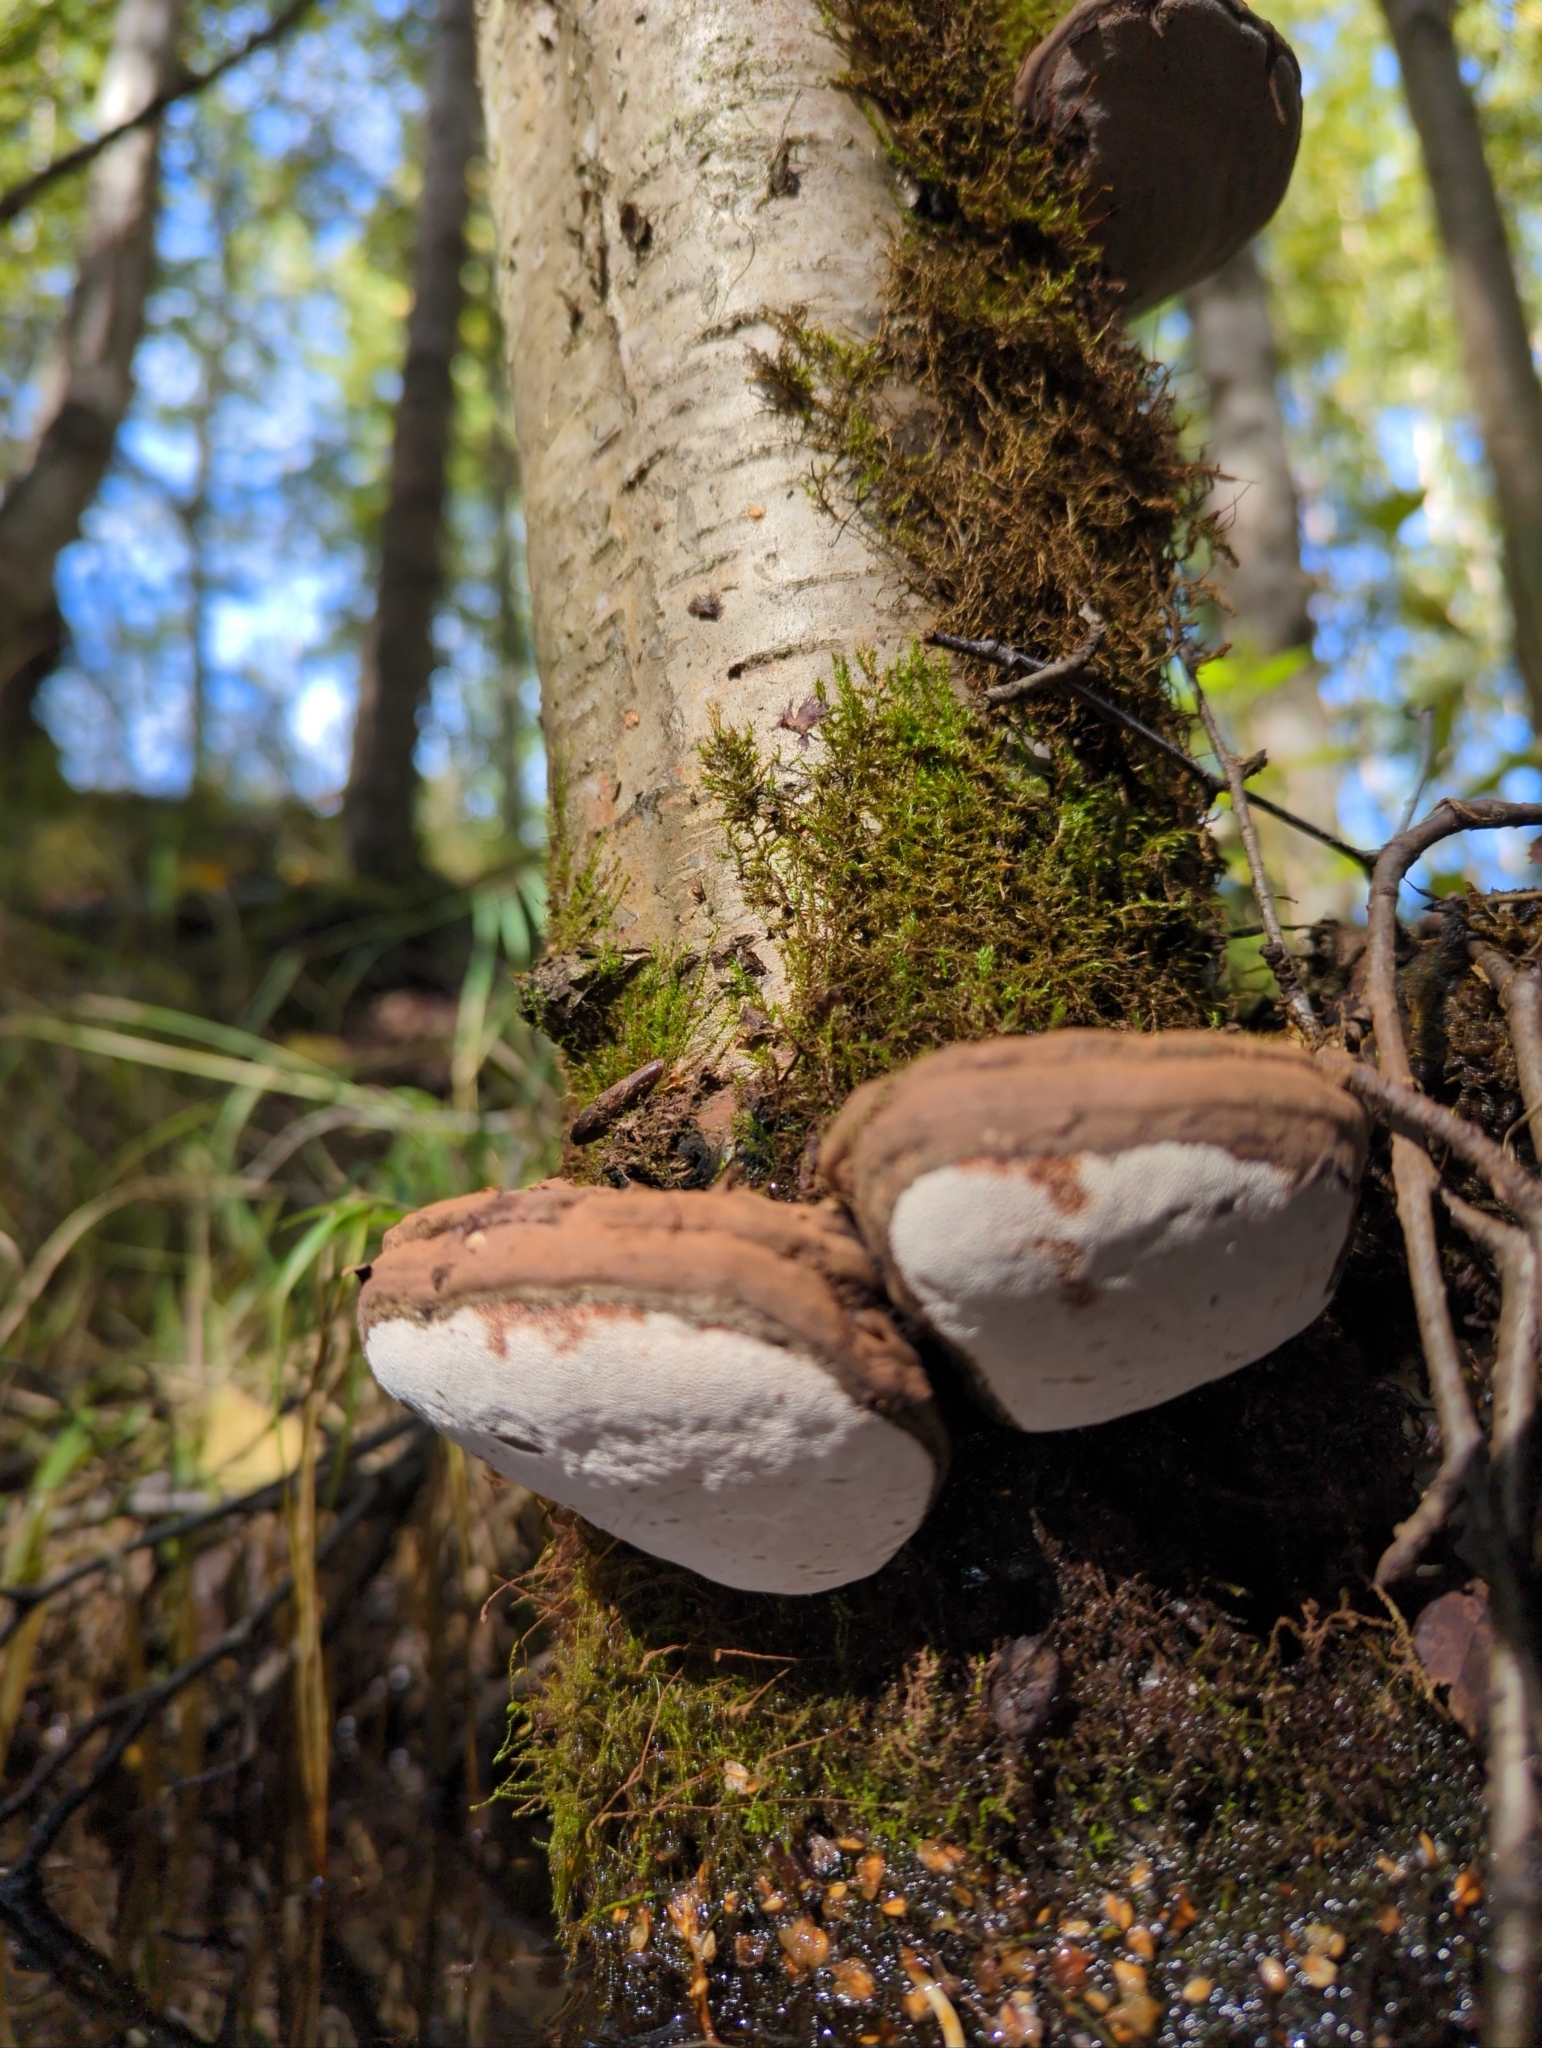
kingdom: Fungi
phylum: Basidiomycota
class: Agaricomycetes
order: Polyporales
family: Polyporaceae
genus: Ganoderma
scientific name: Ganoderma applanatum
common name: Artist's bracket
